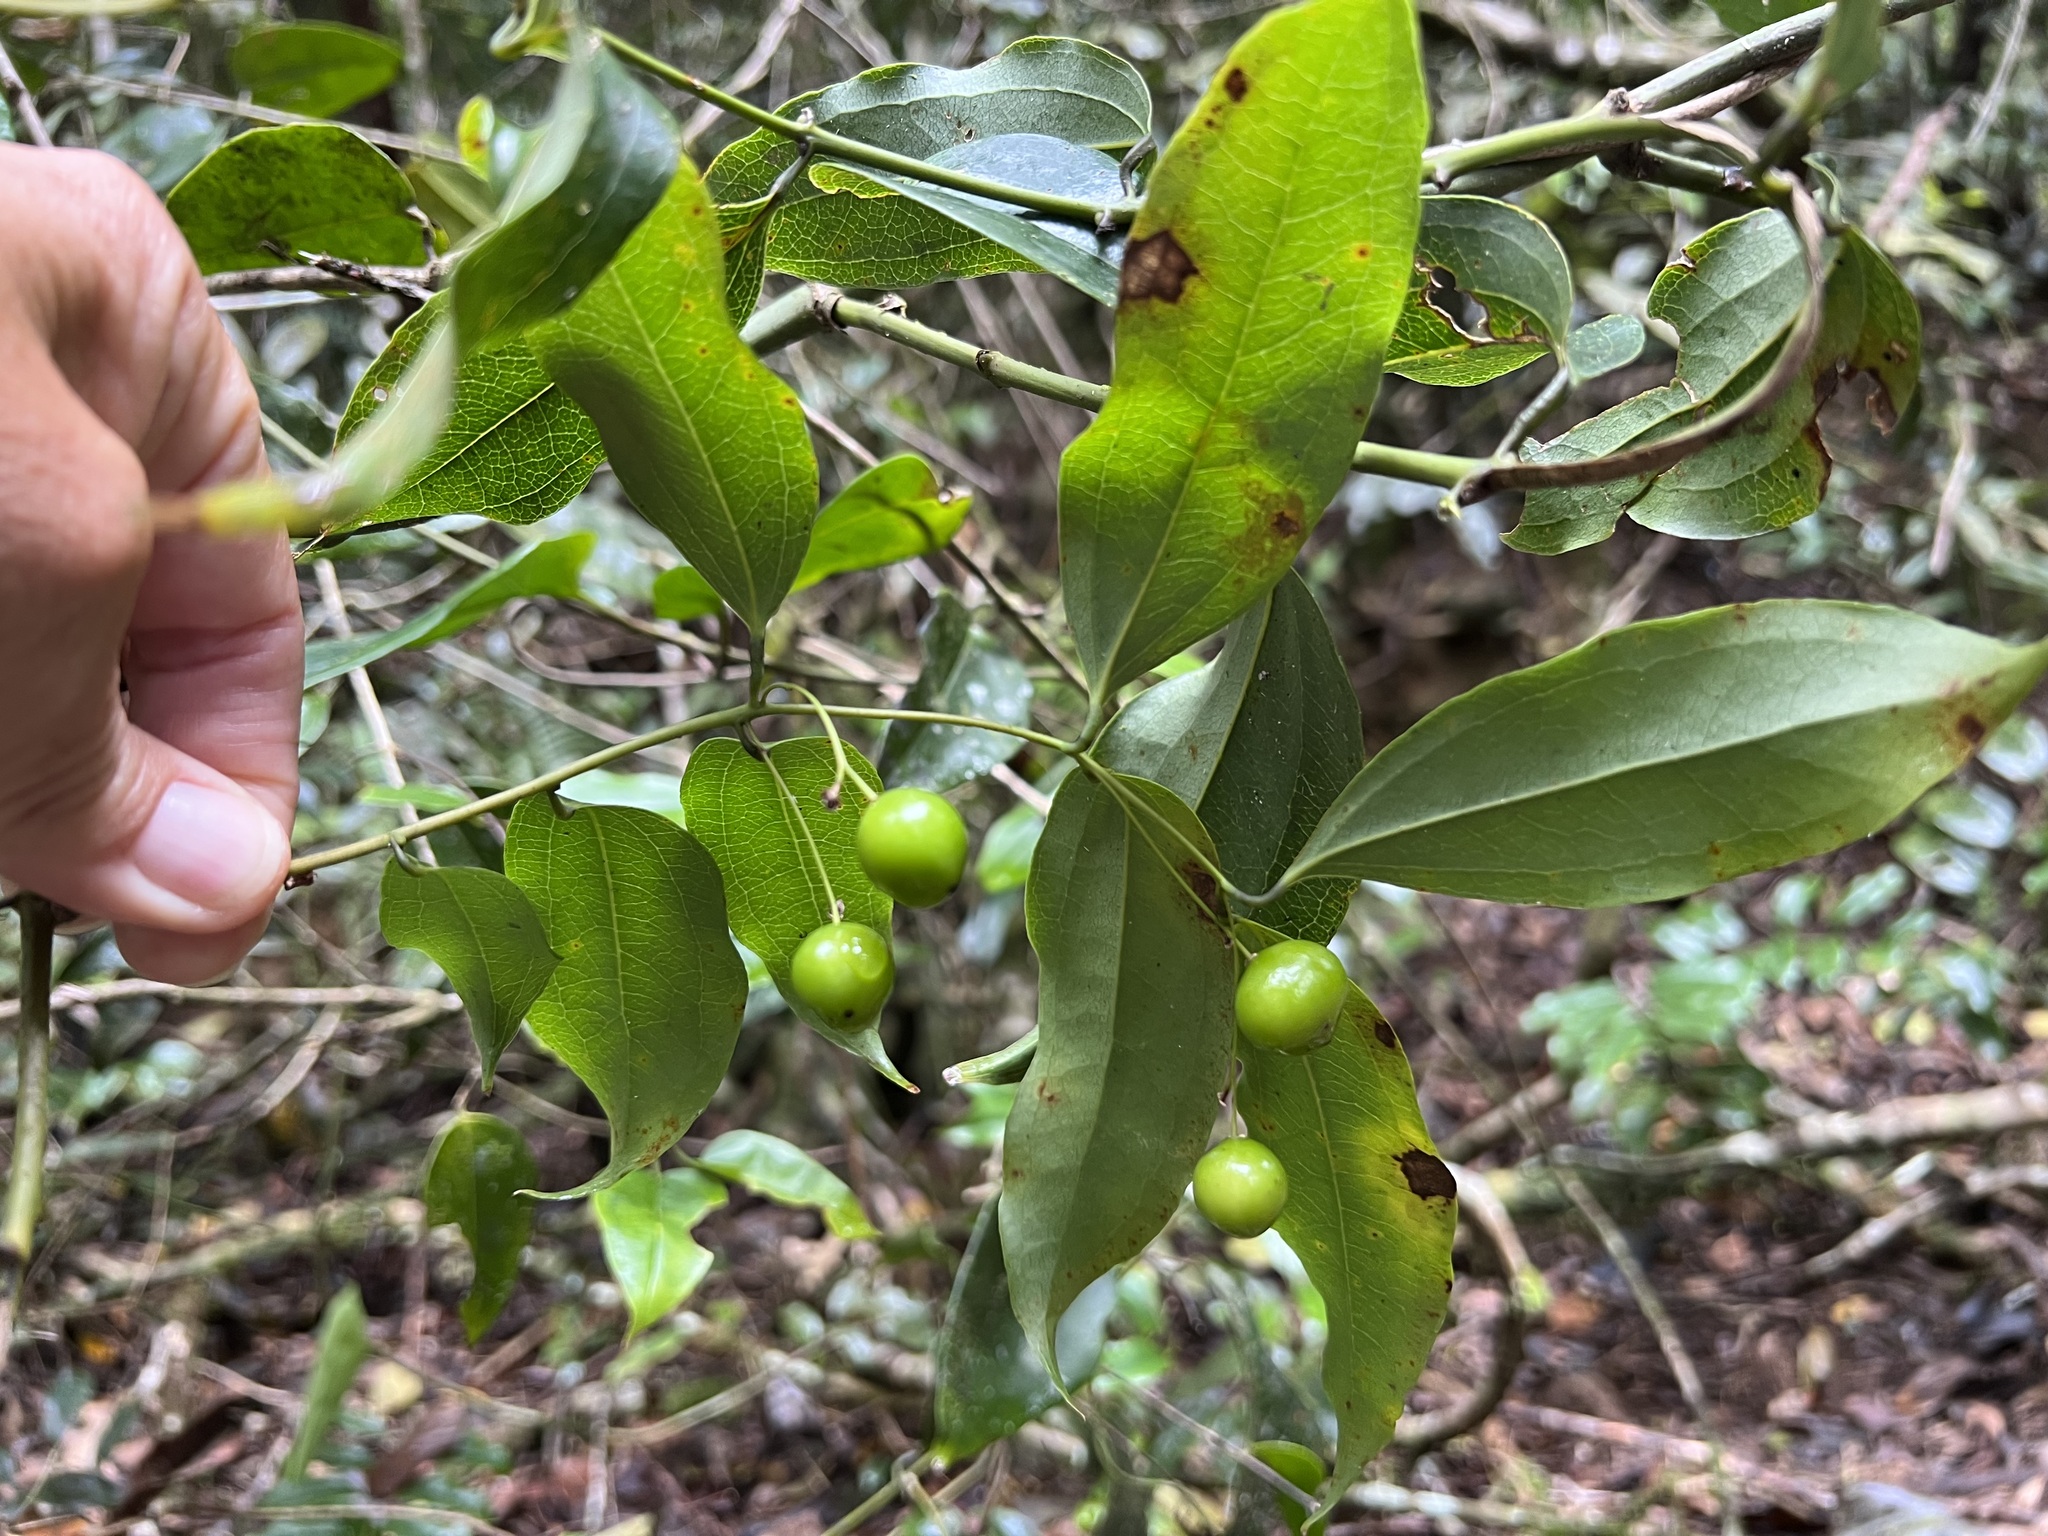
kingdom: Plantae
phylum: Tracheophyta
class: Liliopsida
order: Liliales
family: Ripogonaceae
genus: Ripogonum
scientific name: Ripogonum album
